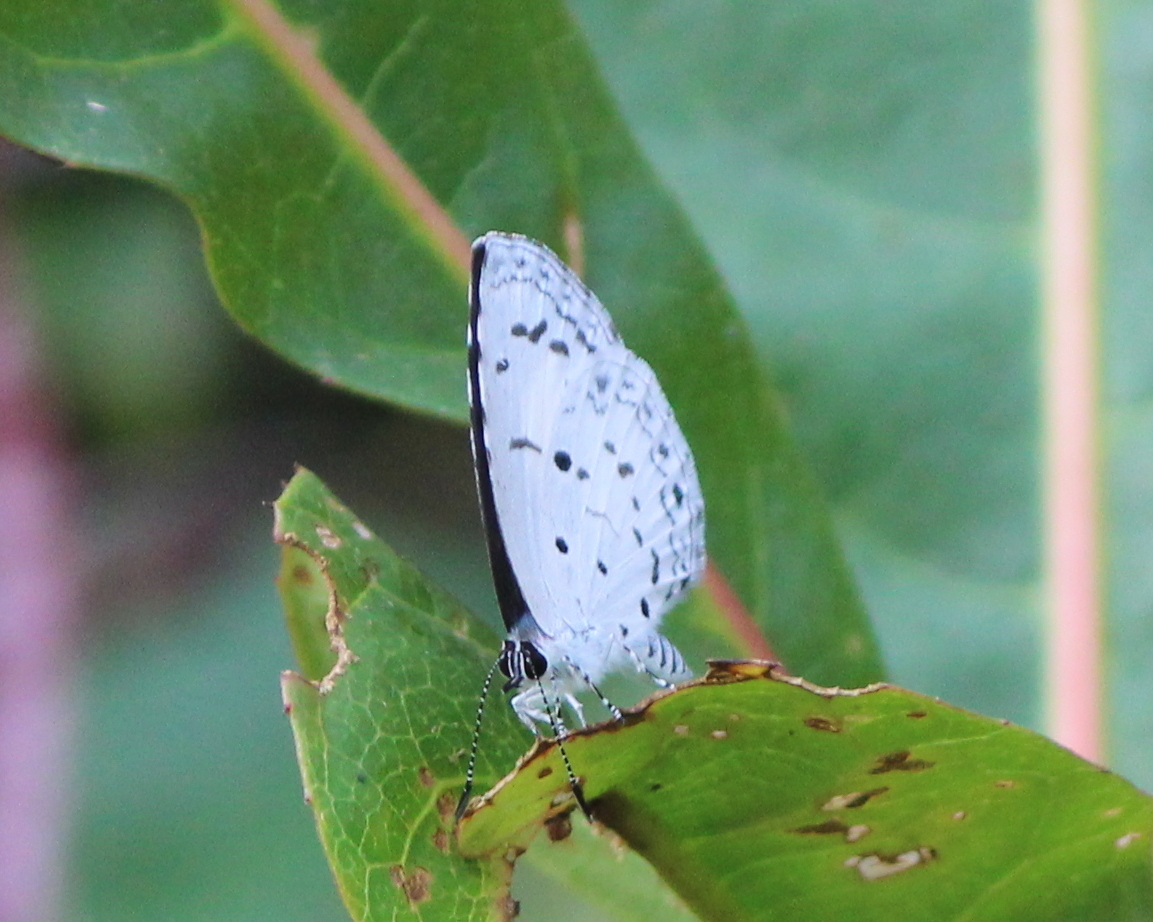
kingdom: Animalia
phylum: Arthropoda
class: Insecta
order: Lepidoptera
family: Lycaenidae
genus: Acytolepis
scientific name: Acytolepis puspa
